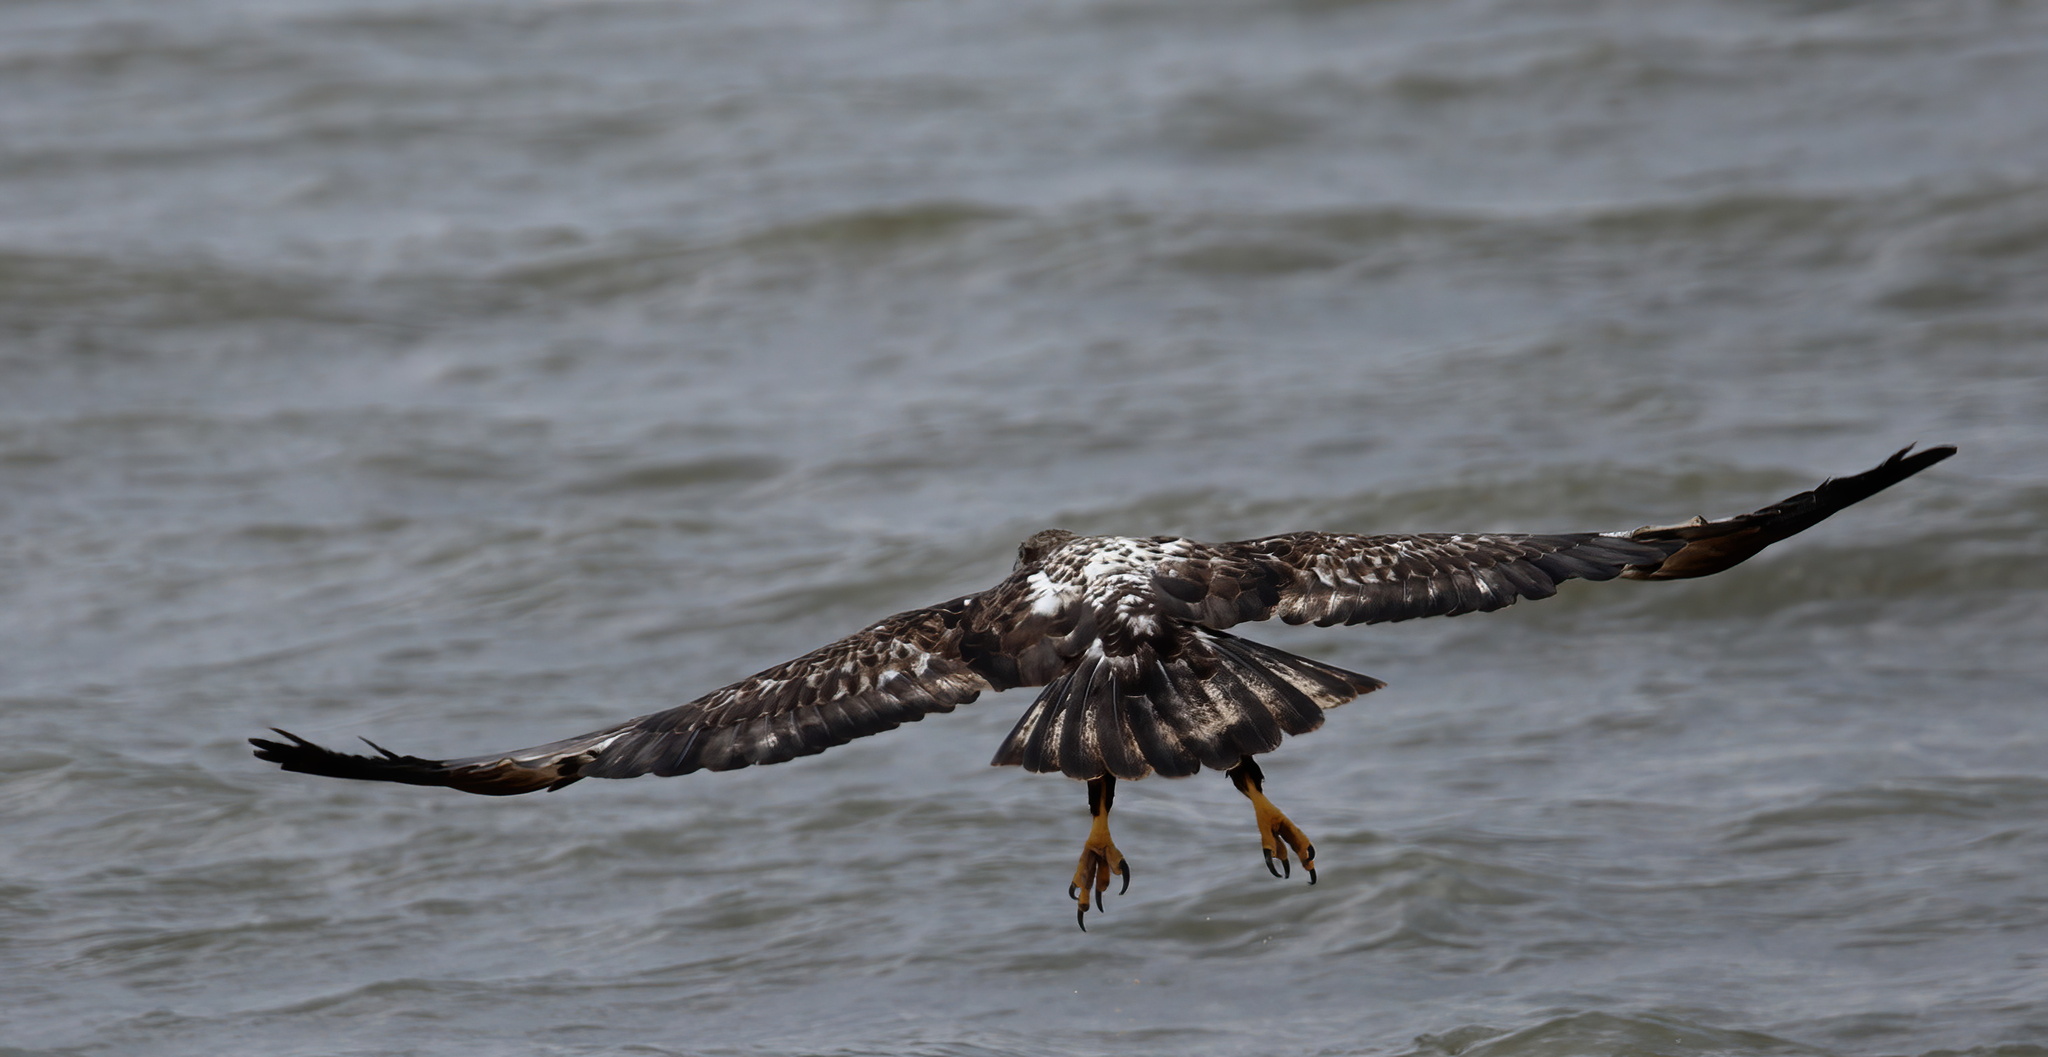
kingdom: Animalia
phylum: Chordata
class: Aves
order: Accipitriformes
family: Accipitridae
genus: Haliaeetus
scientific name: Haliaeetus leucocephalus
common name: Bald eagle
